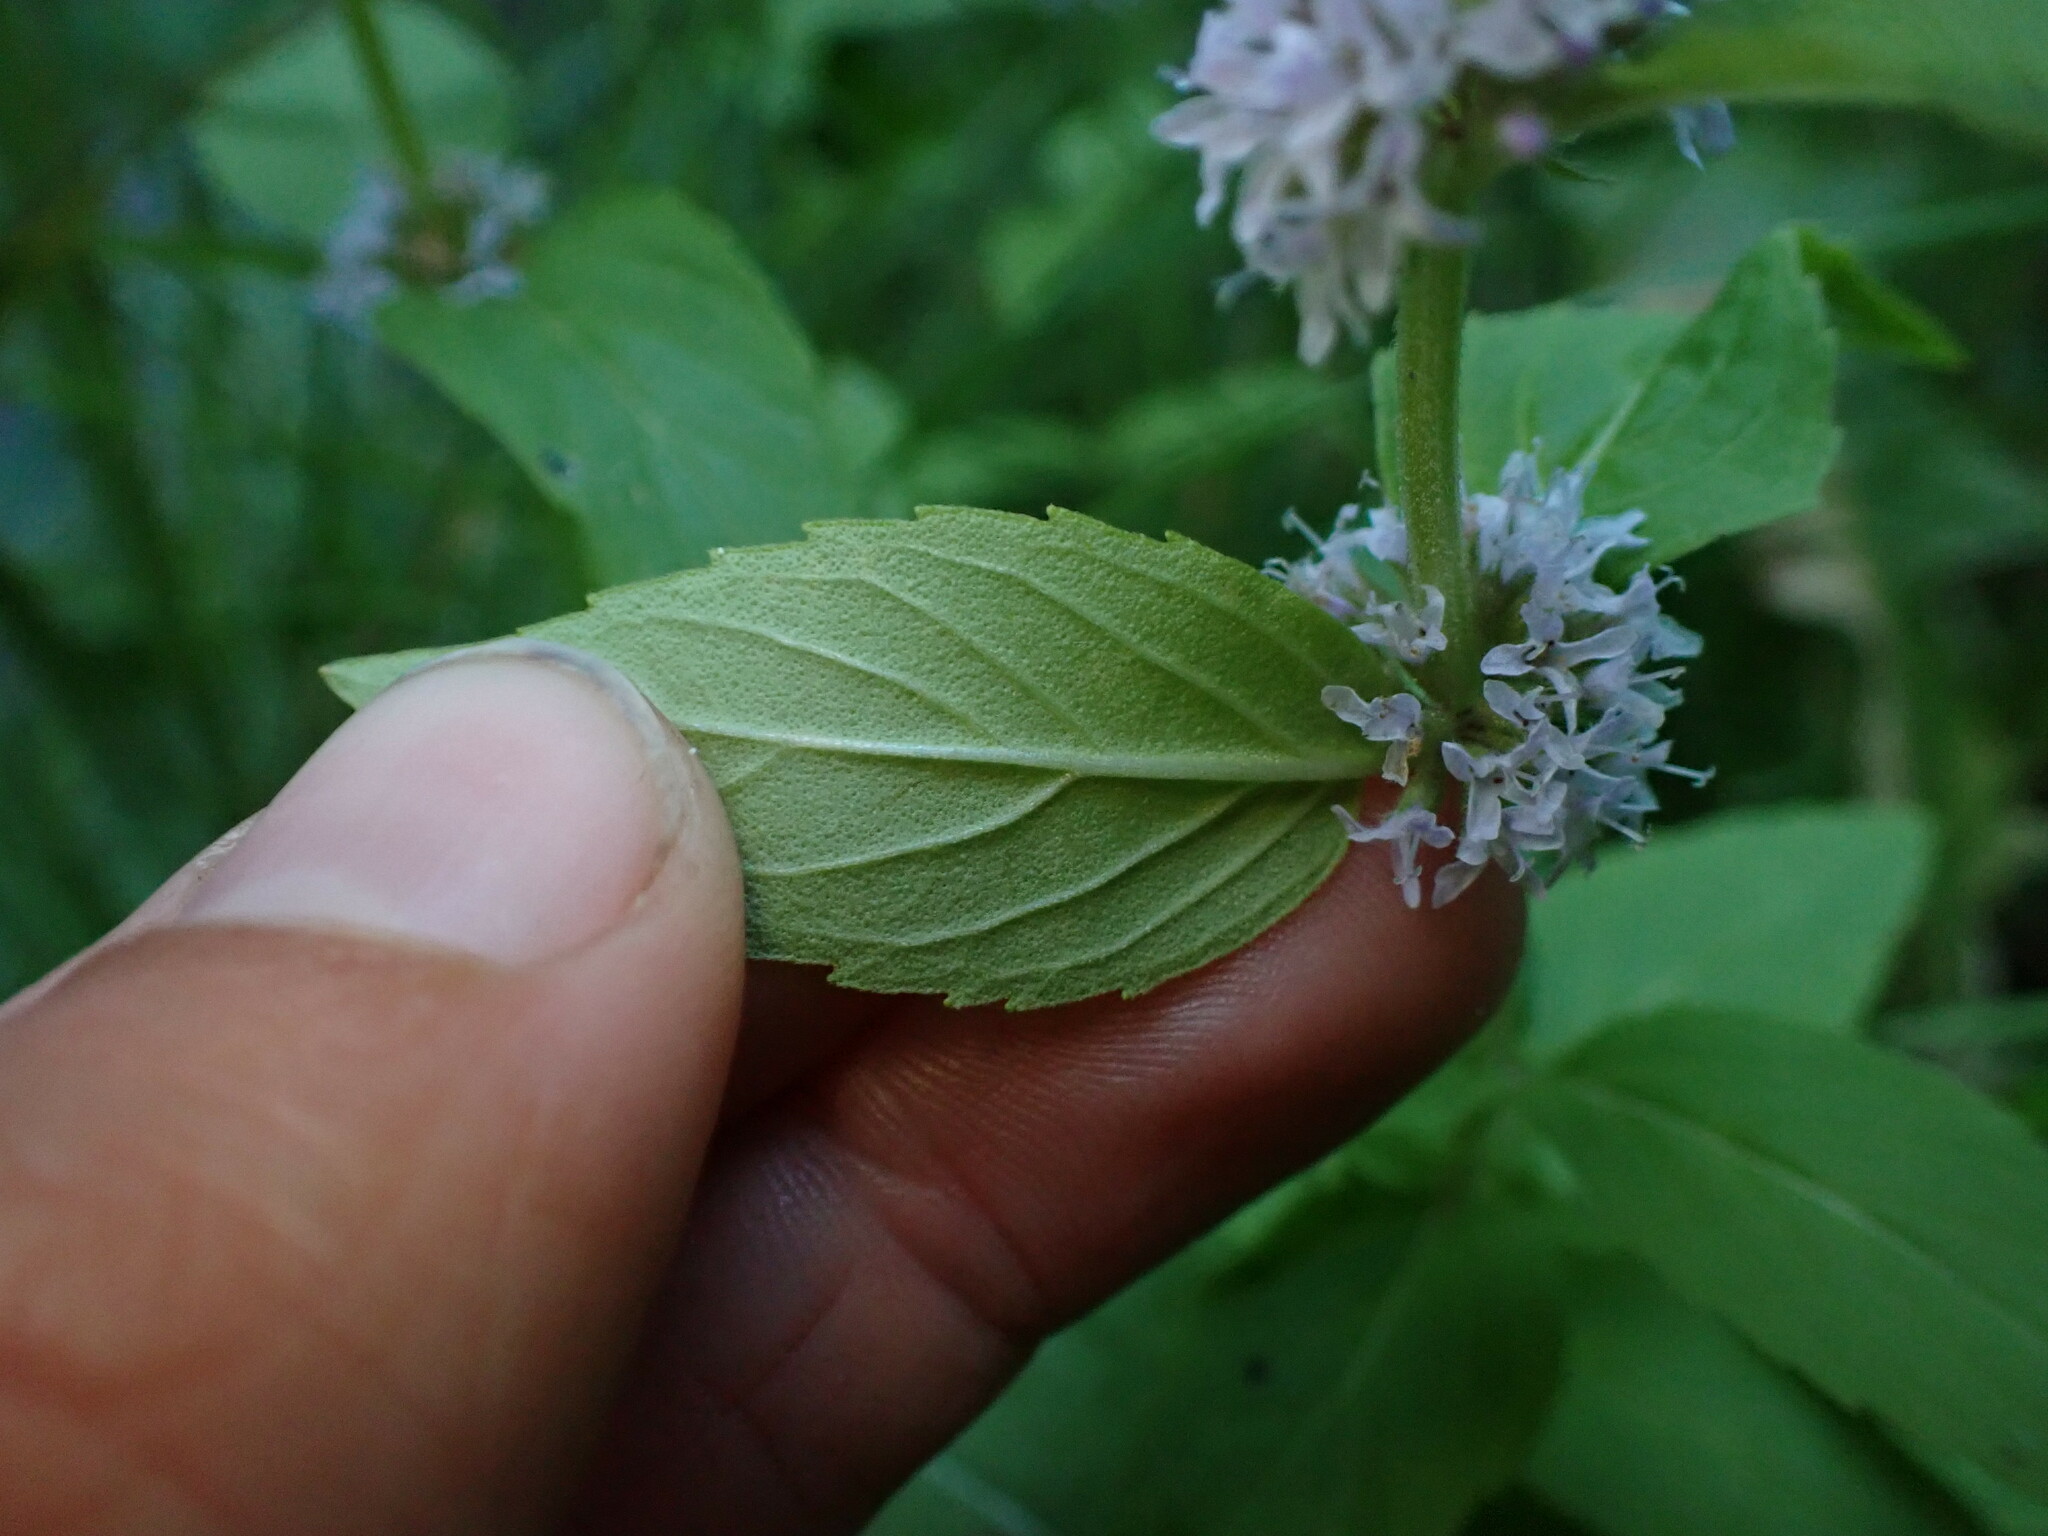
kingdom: Plantae
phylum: Tracheophyta
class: Magnoliopsida
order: Lamiales
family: Lamiaceae
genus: Mentha
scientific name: Mentha canadensis
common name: American corn mint
